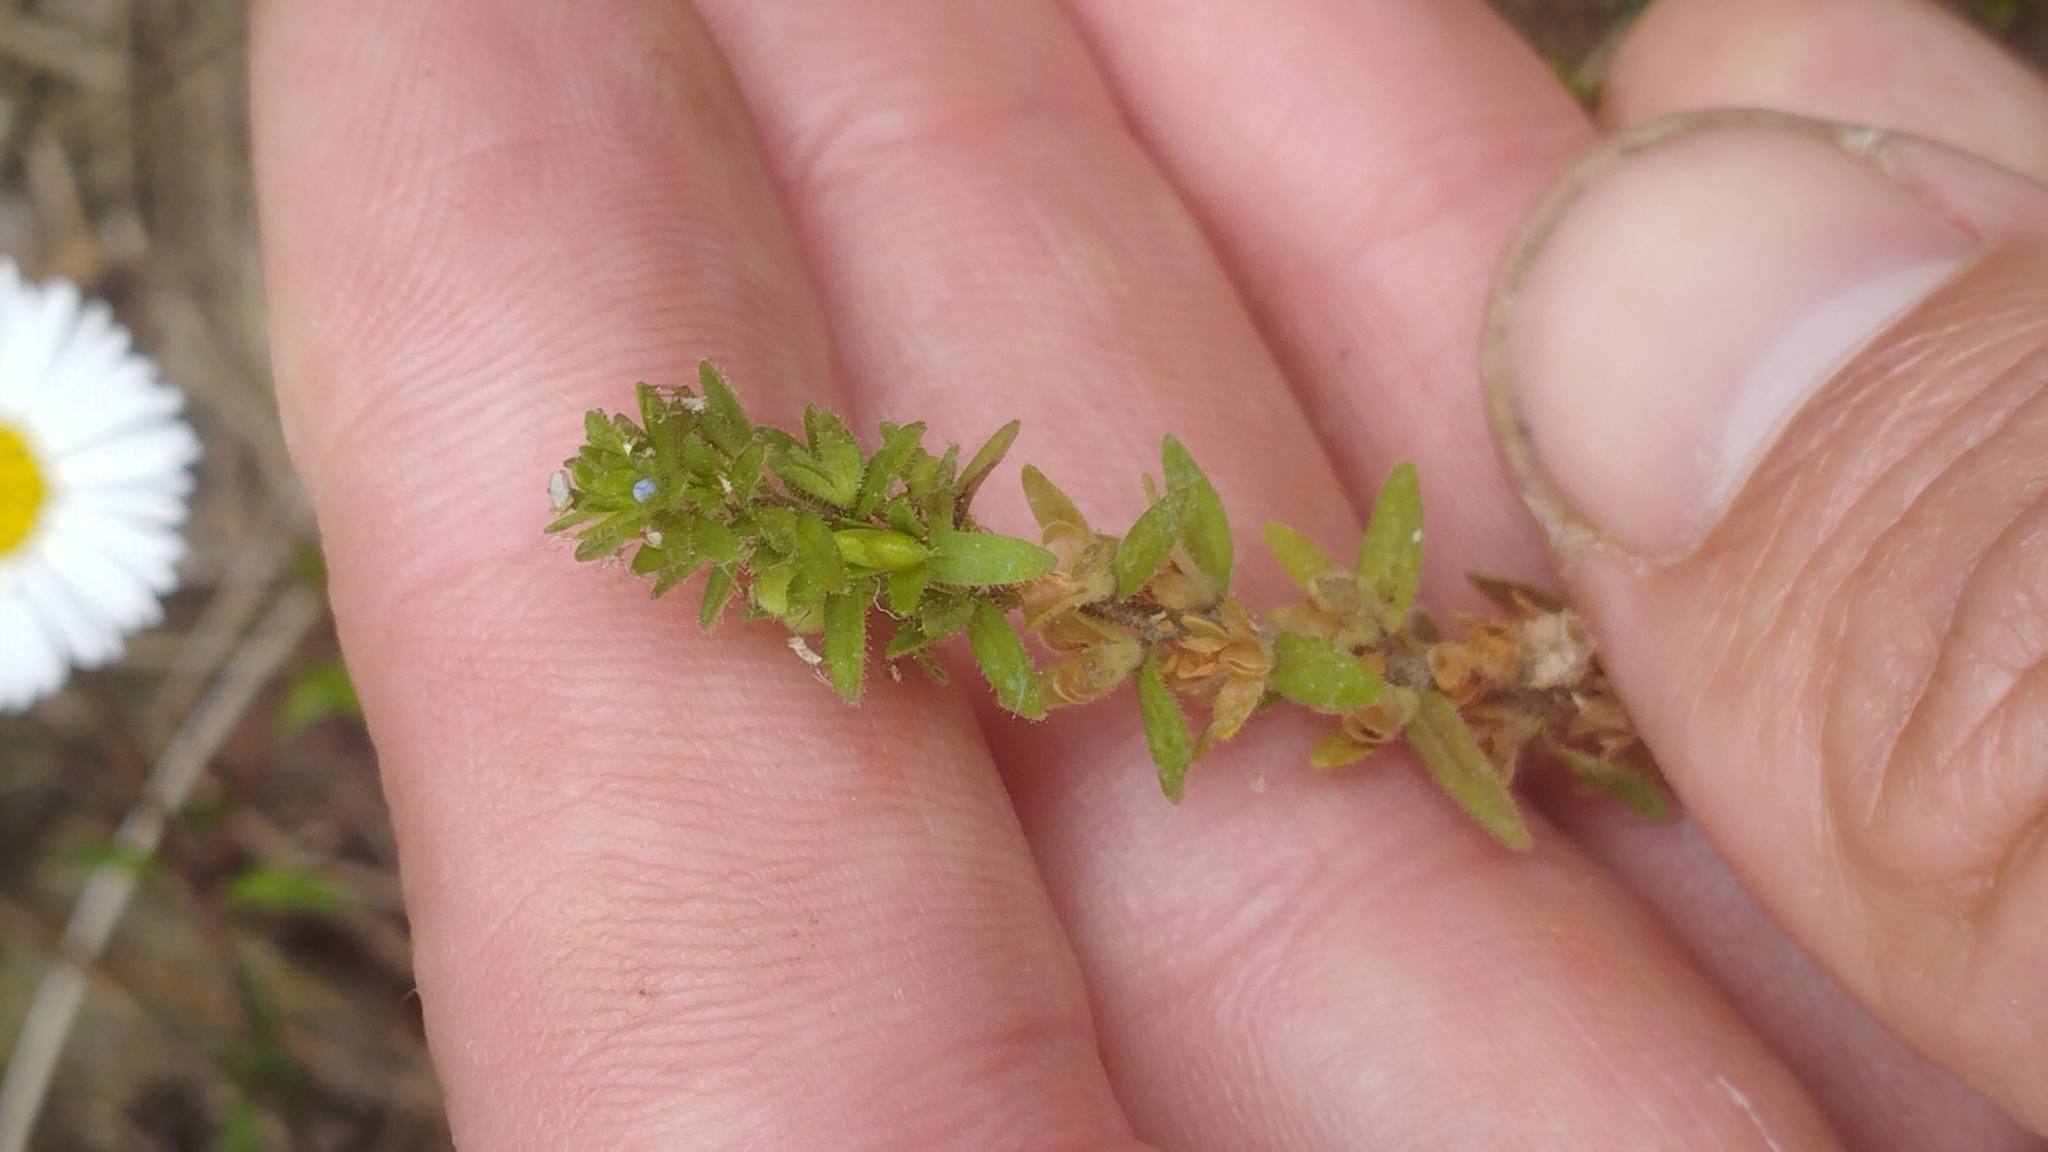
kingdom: Plantae
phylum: Tracheophyta
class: Magnoliopsida
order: Lamiales
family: Plantaginaceae
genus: Veronica
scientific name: Veronica arvensis
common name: Corn speedwell
